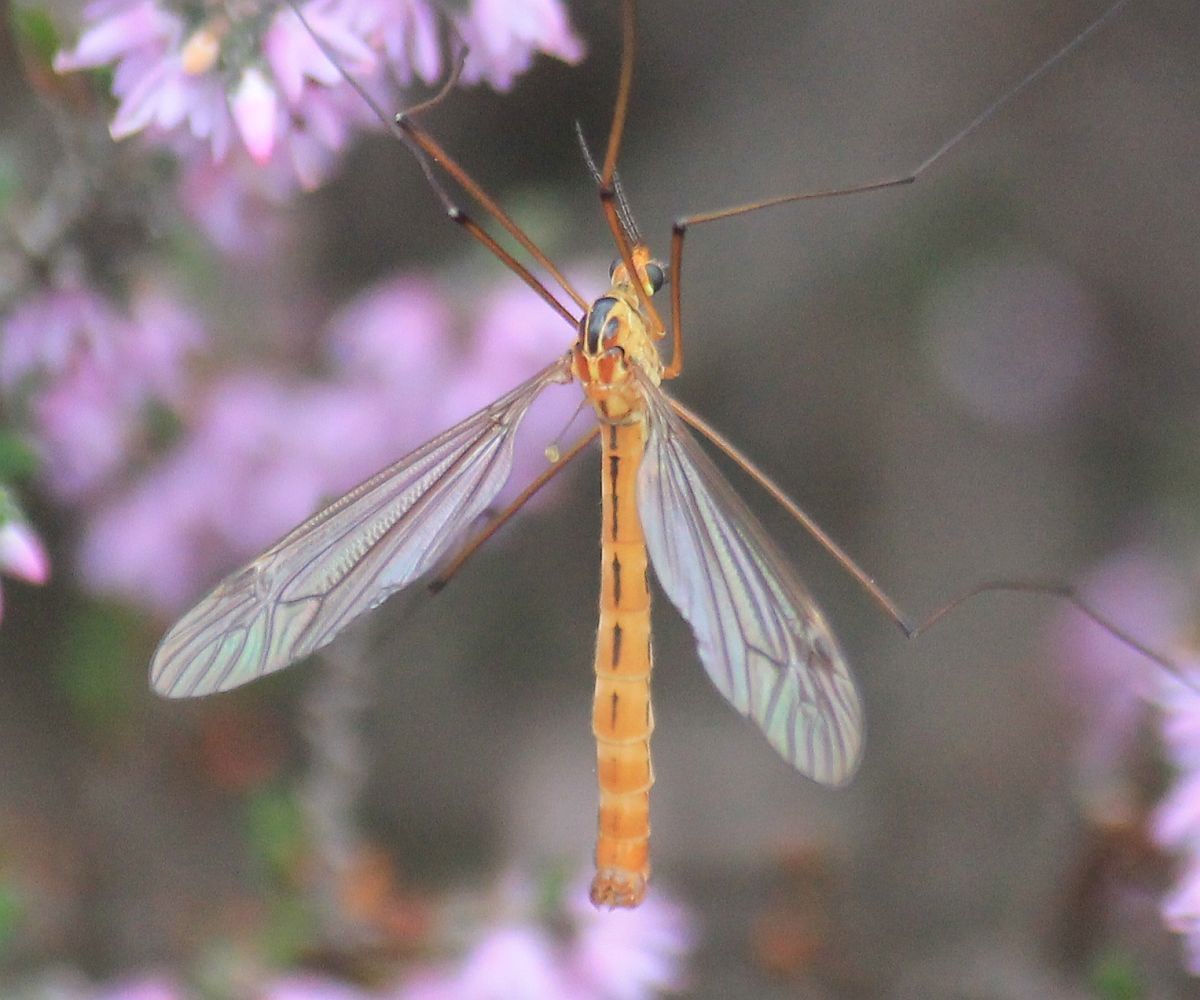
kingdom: Animalia
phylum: Arthropoda
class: Insecta
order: Diptera
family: Tipulidae
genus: Nephrotoma
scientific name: Nephrotoma scurra
